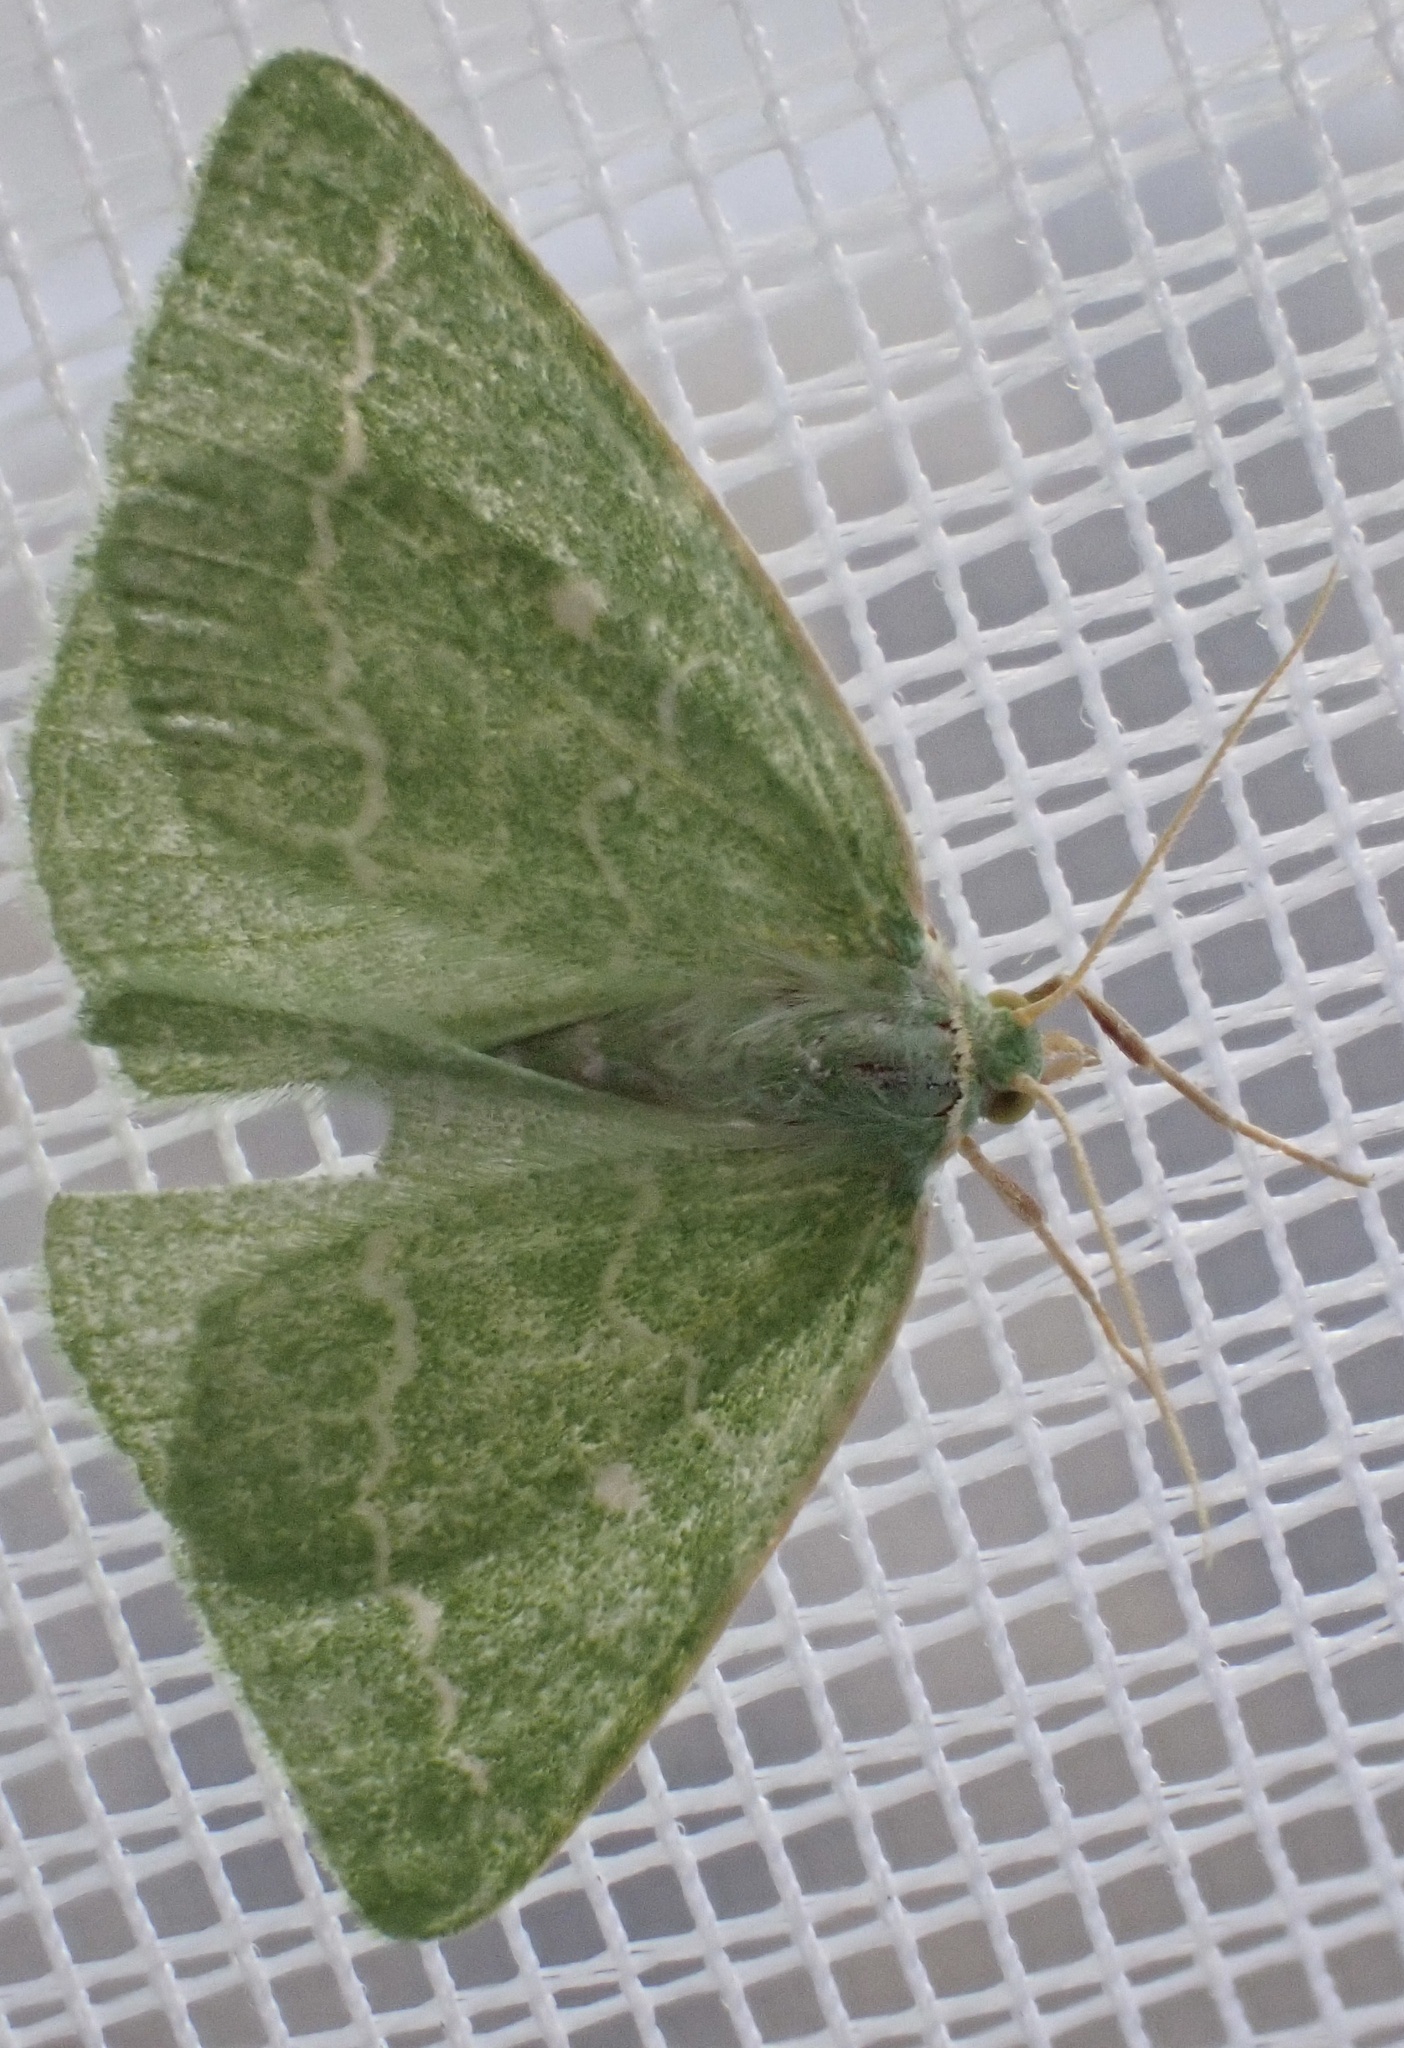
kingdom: Animalia
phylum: Arthropoda
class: Insecta
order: Lepidoptera
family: Geometridae
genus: Thetidia
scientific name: Thetidia smaragdaria
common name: Essex emerald
